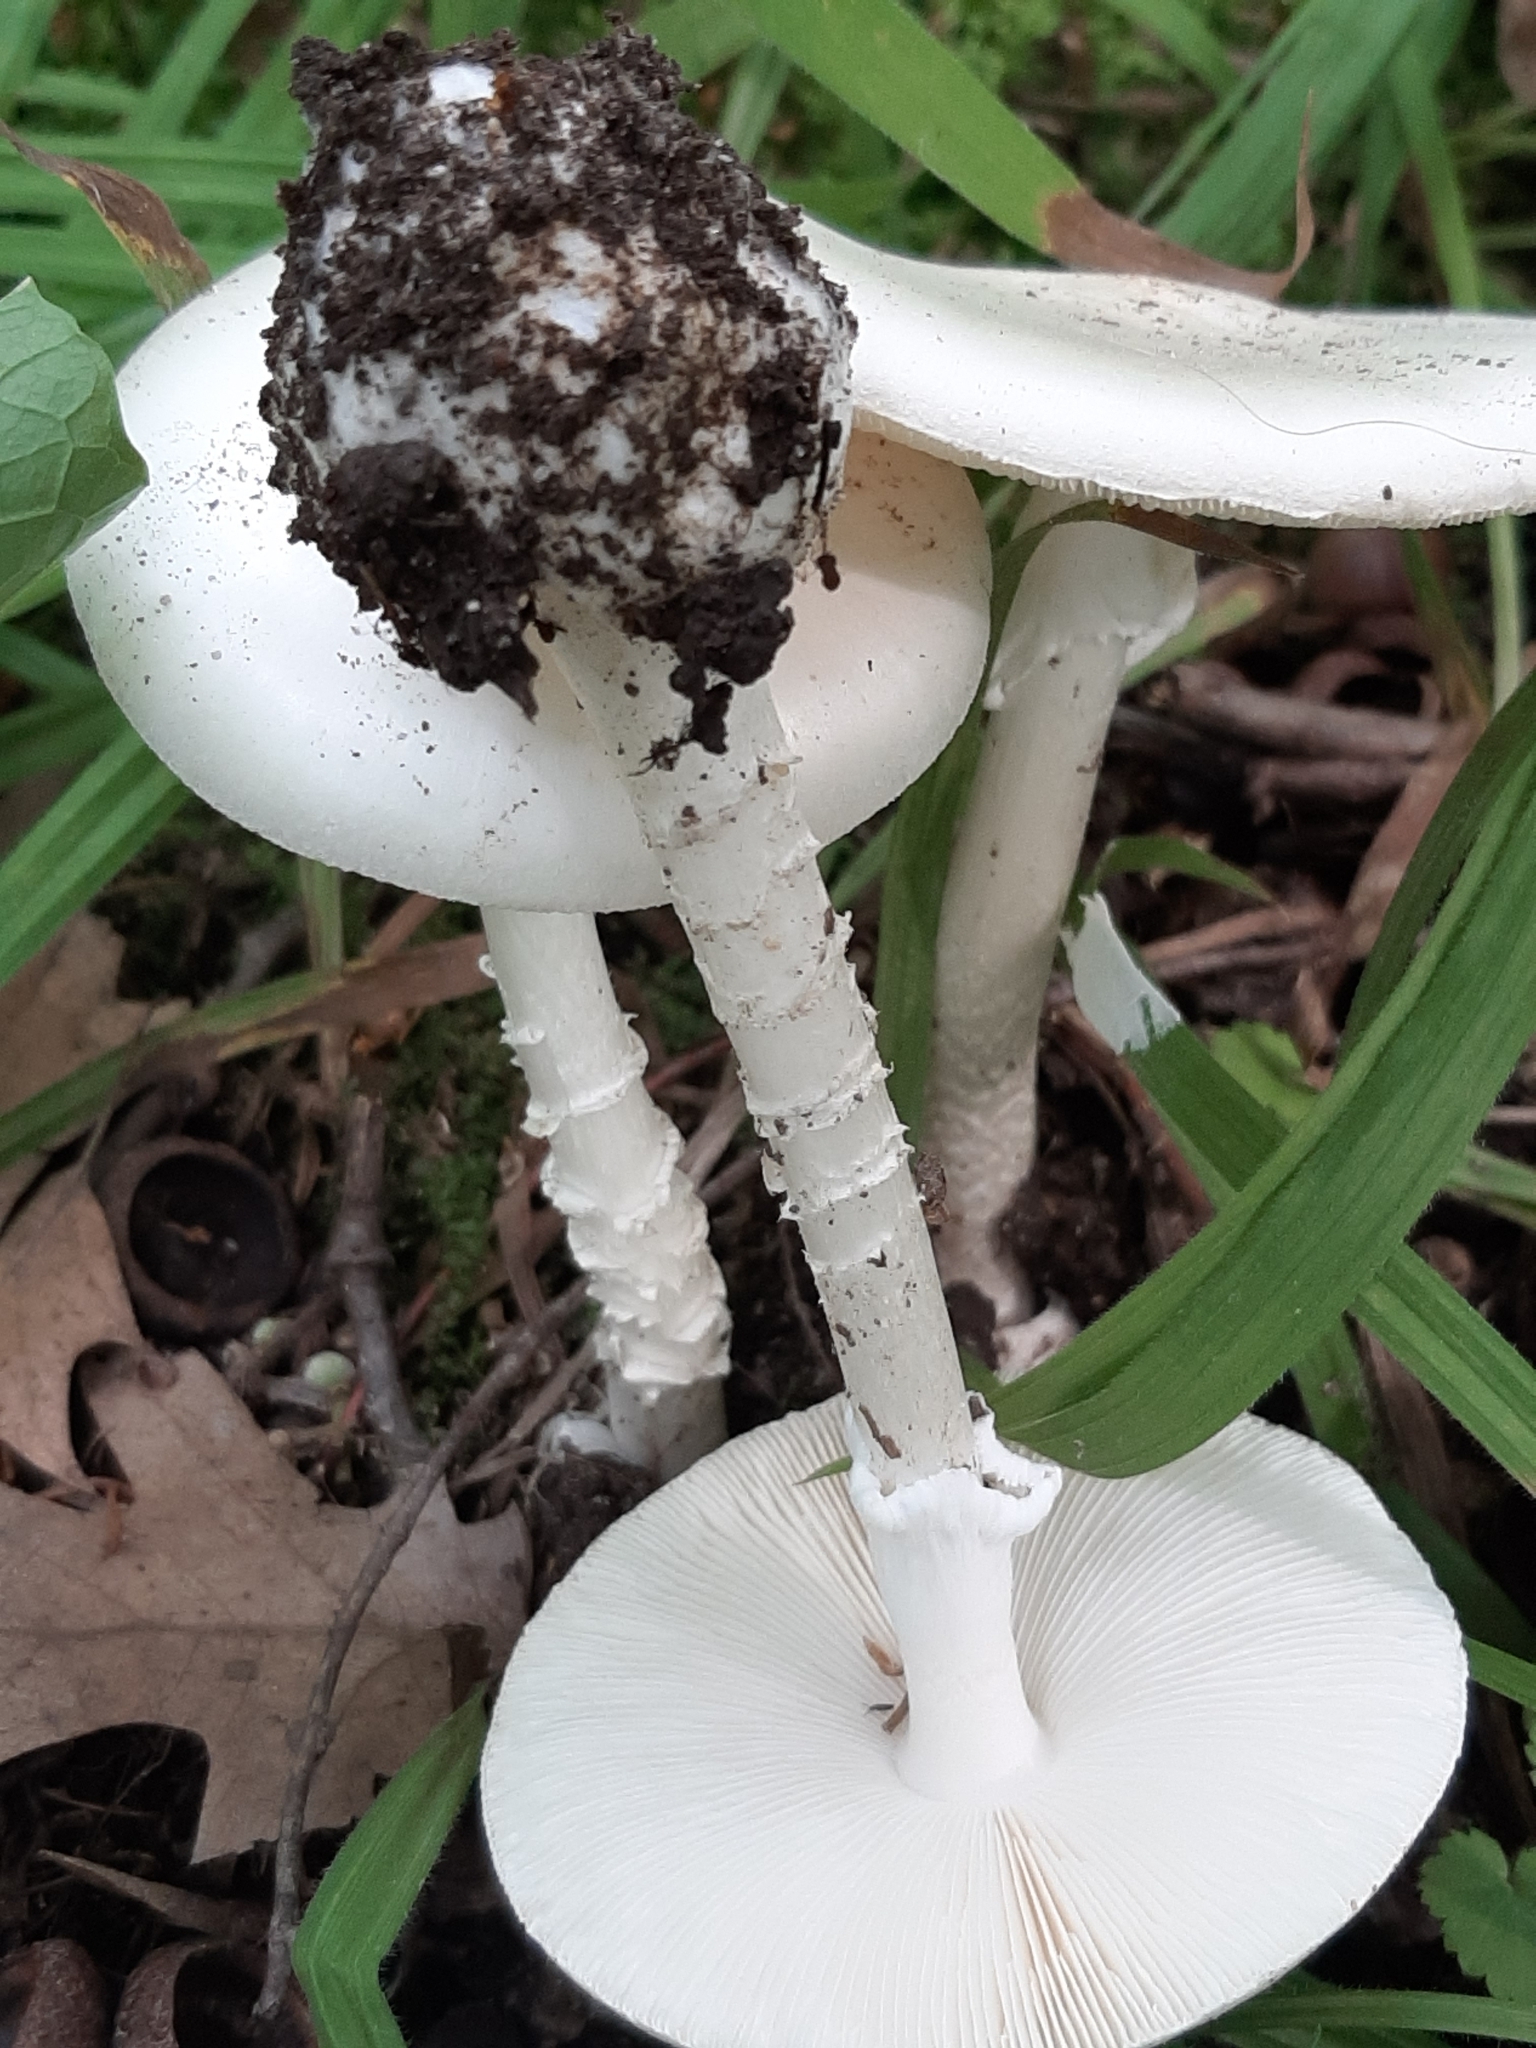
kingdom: Fungi
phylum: Basidiomycota
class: Agaricomycetes
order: Agaricales
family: Amanitaceae
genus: Amanita
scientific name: Amanita bisporigera
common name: Eastern north american destroying angel
